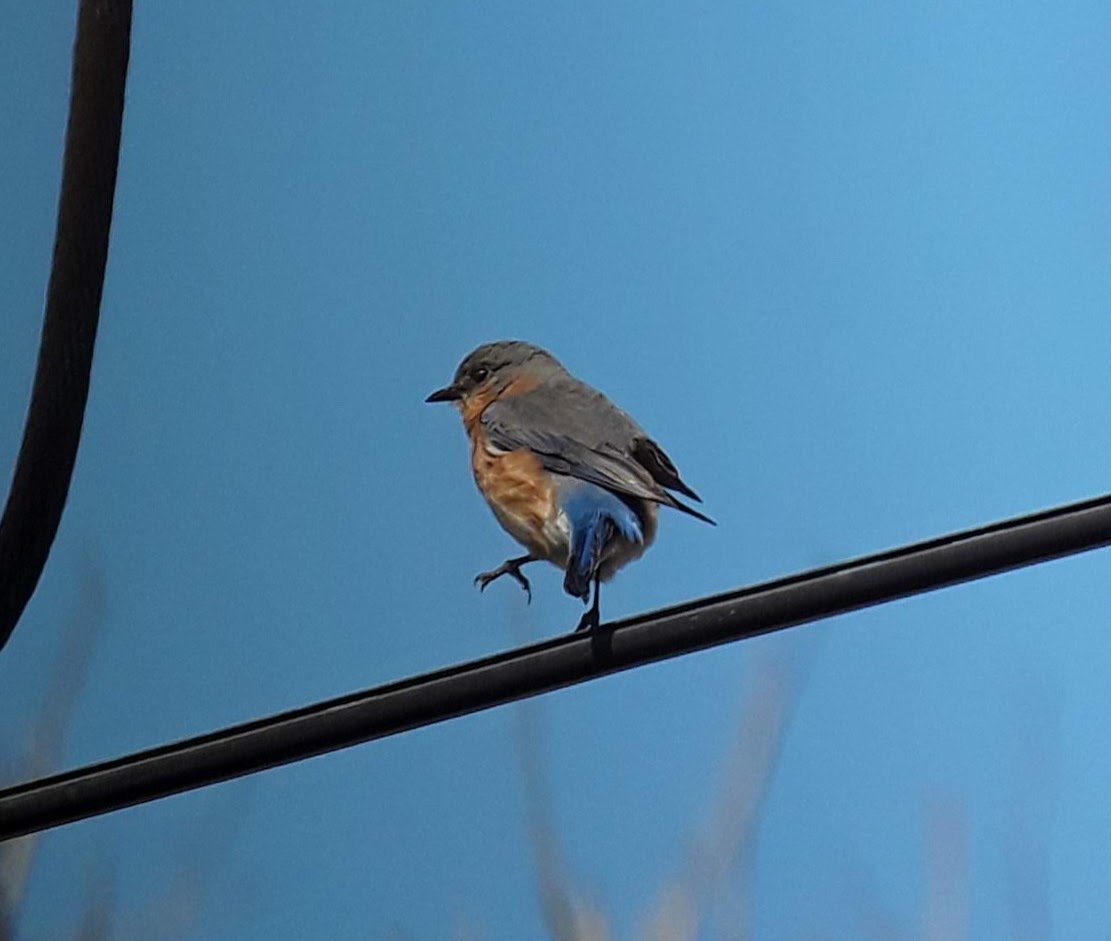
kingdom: Animalia
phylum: Chordata
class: Aves
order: Passeriformes
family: Turdidae
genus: Sialia
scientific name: Sialia sialis
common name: Eastern bluebird
